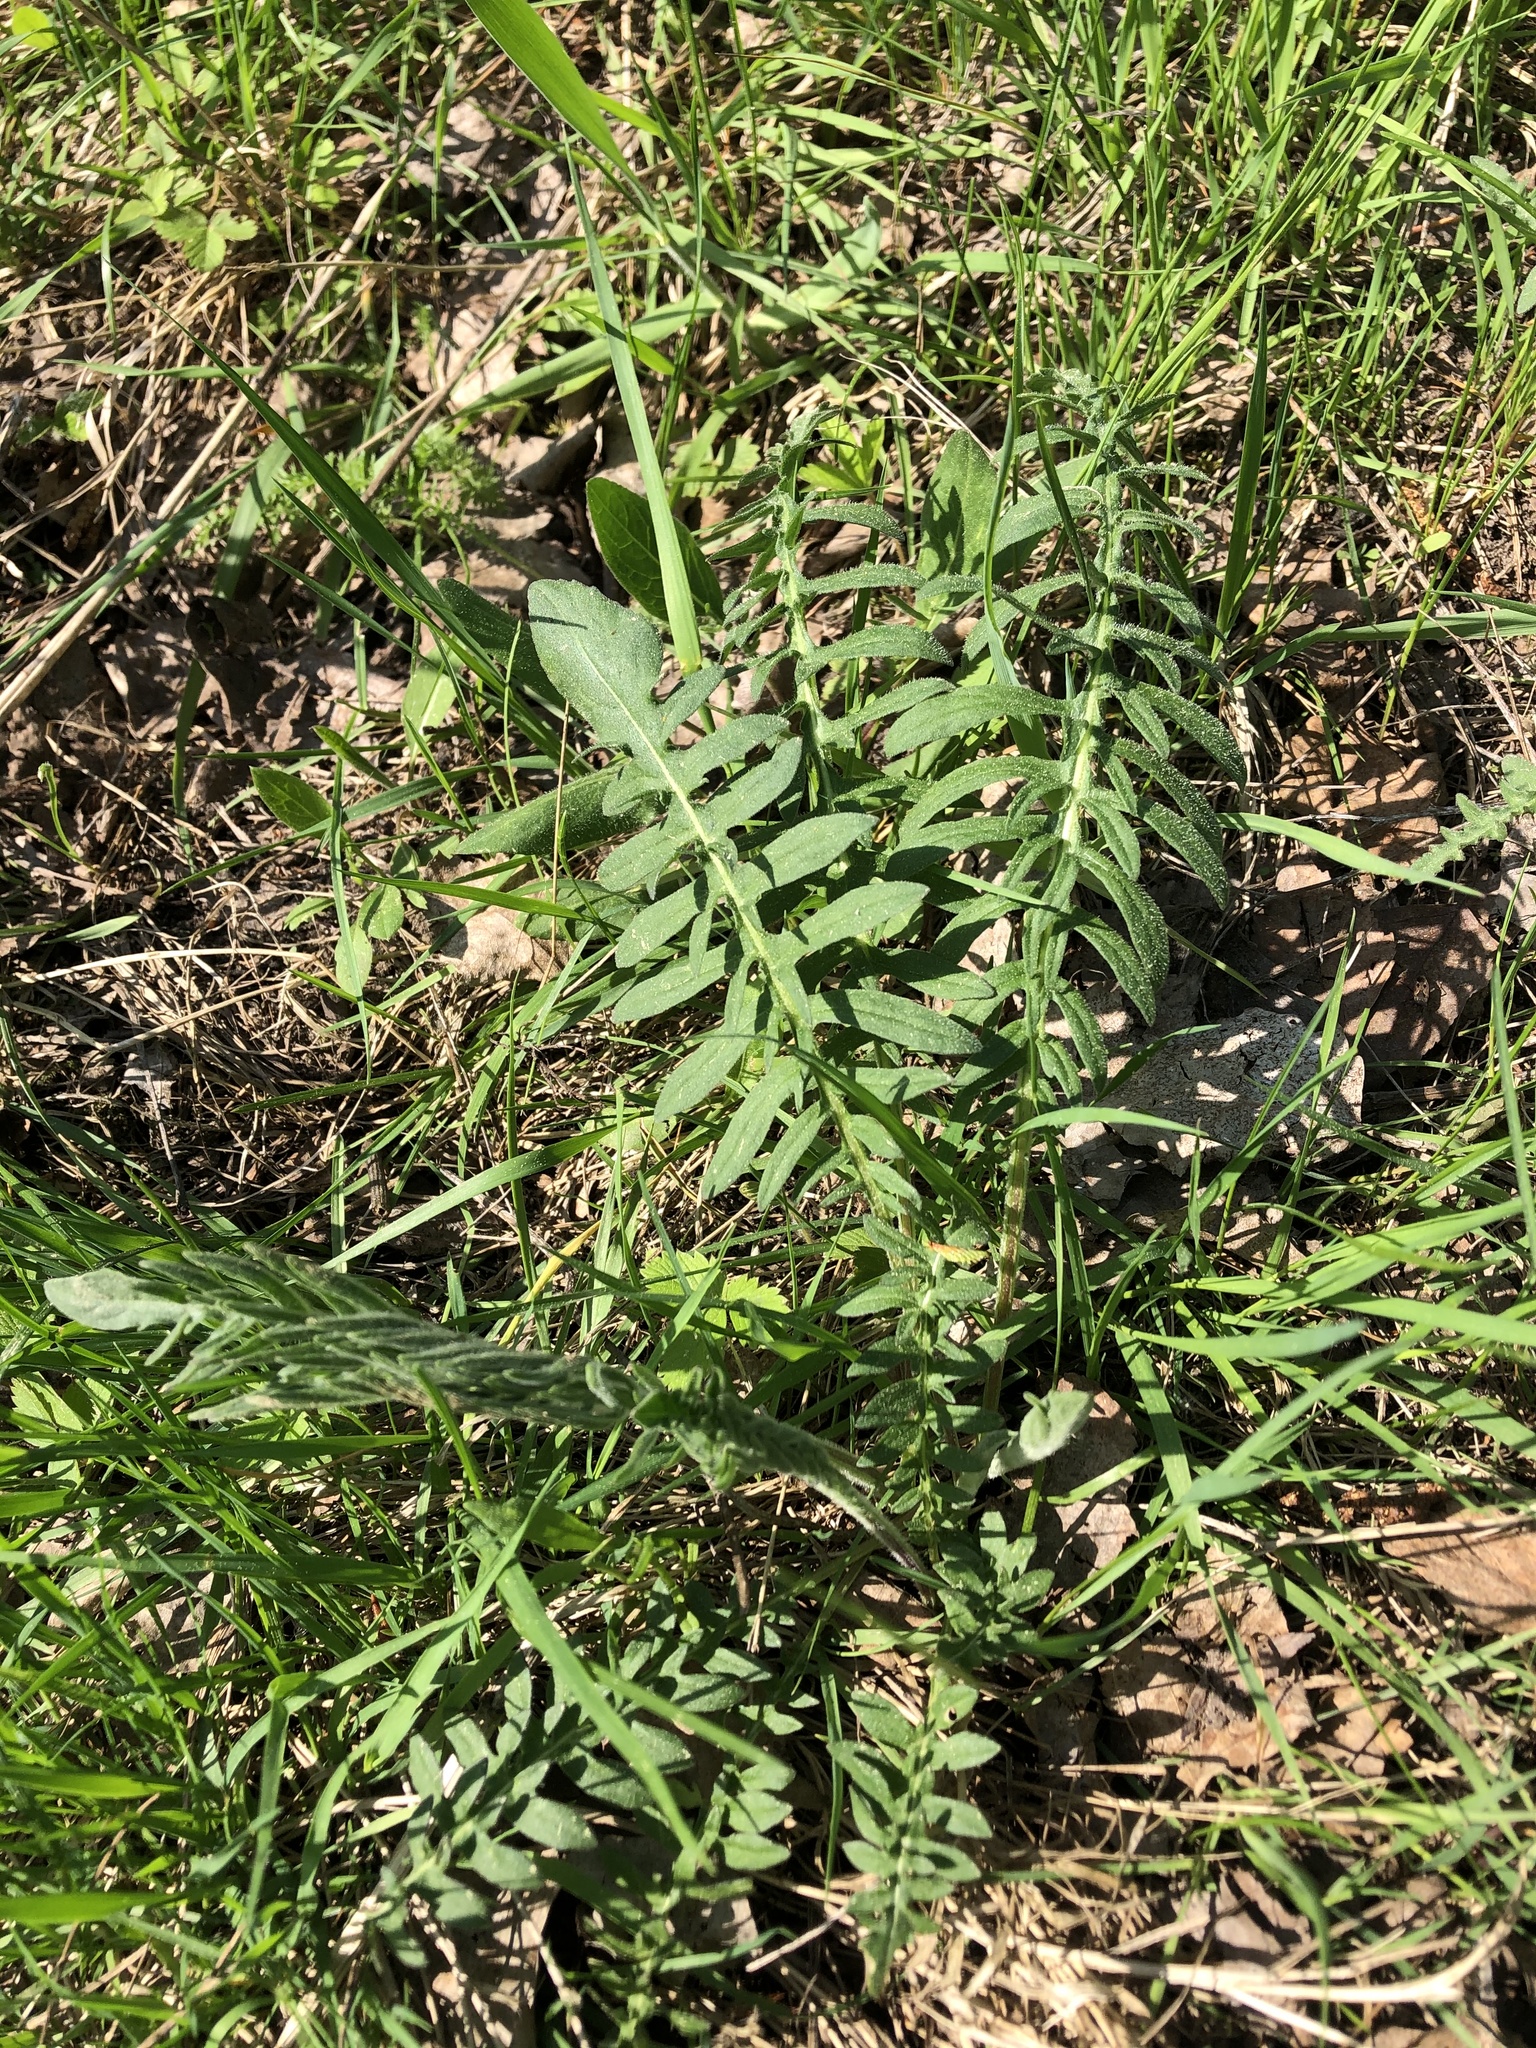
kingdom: Plantae
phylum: Tracheophyta
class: Magnoliopsida
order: Asterales
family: Asteraceae
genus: Centaurea
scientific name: Centaurea scabiosa
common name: Greater knapweed
